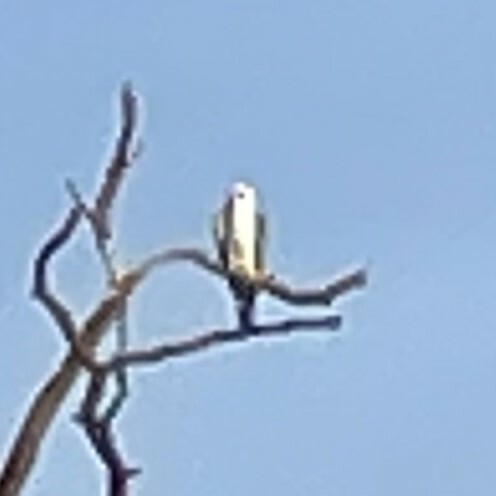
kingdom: Animalia
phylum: Chordata
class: Aves
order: Accipitriformes
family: Accipitridae
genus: Elanus
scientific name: Elanus leucurus
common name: White-tailed kite
